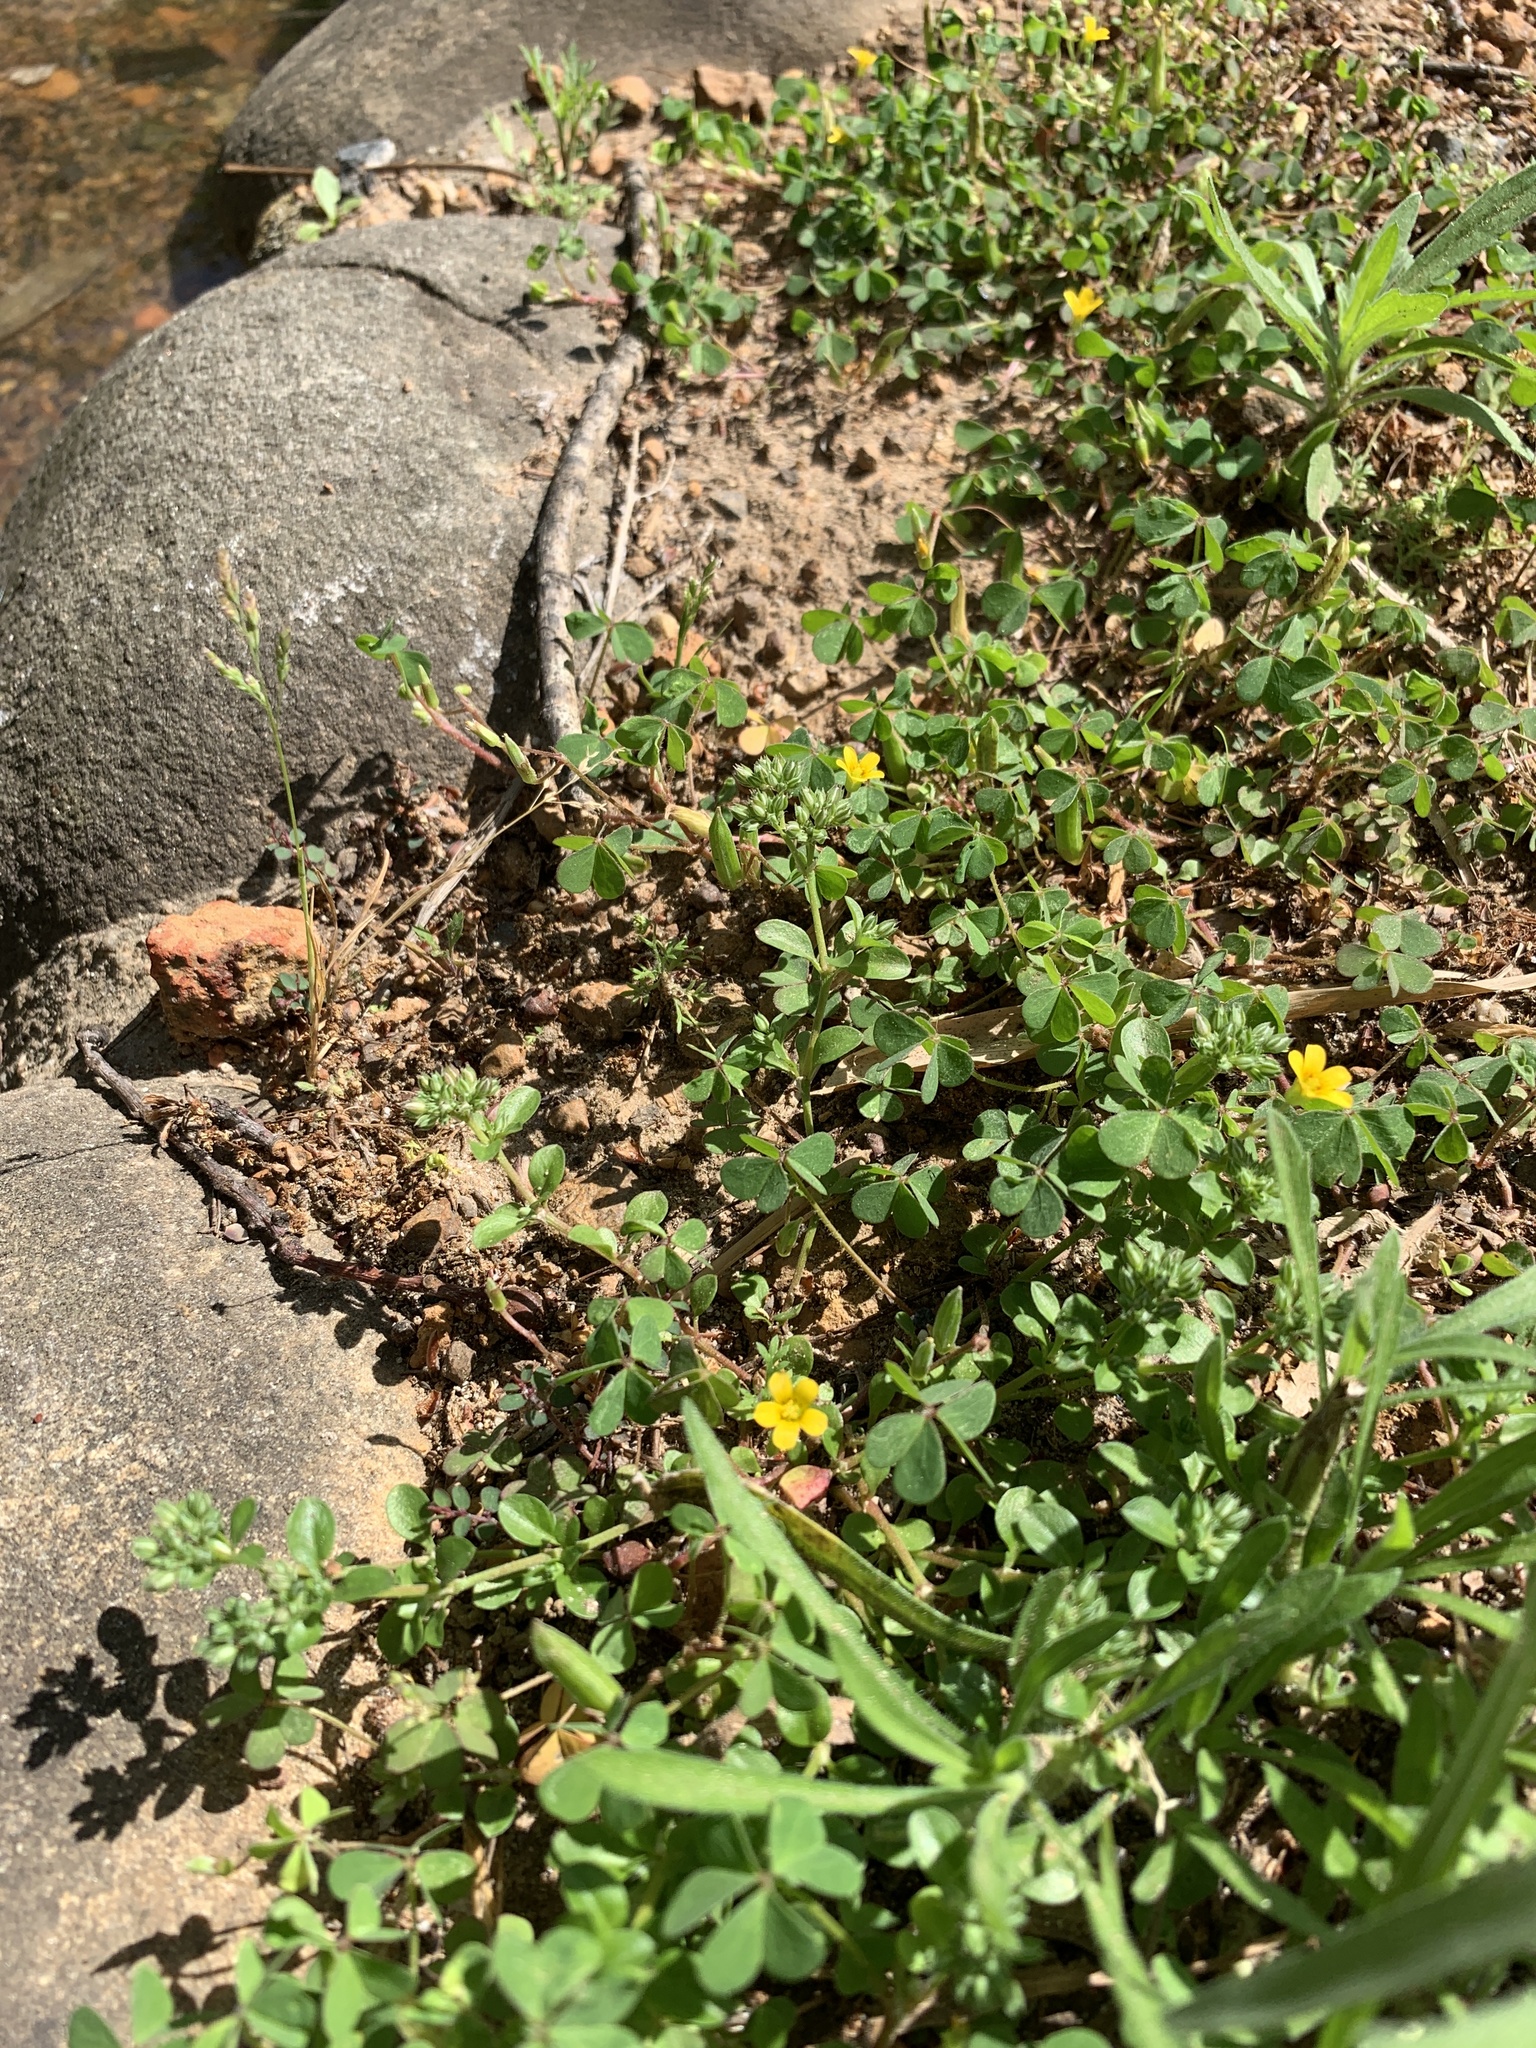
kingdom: Plantae
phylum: Tracheophyta
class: Magnoliopsida
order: Oxalidales
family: Oxalidaceae
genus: Oxalis
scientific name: Oxalis corniculata
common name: Procumbent yellow-sorrel
